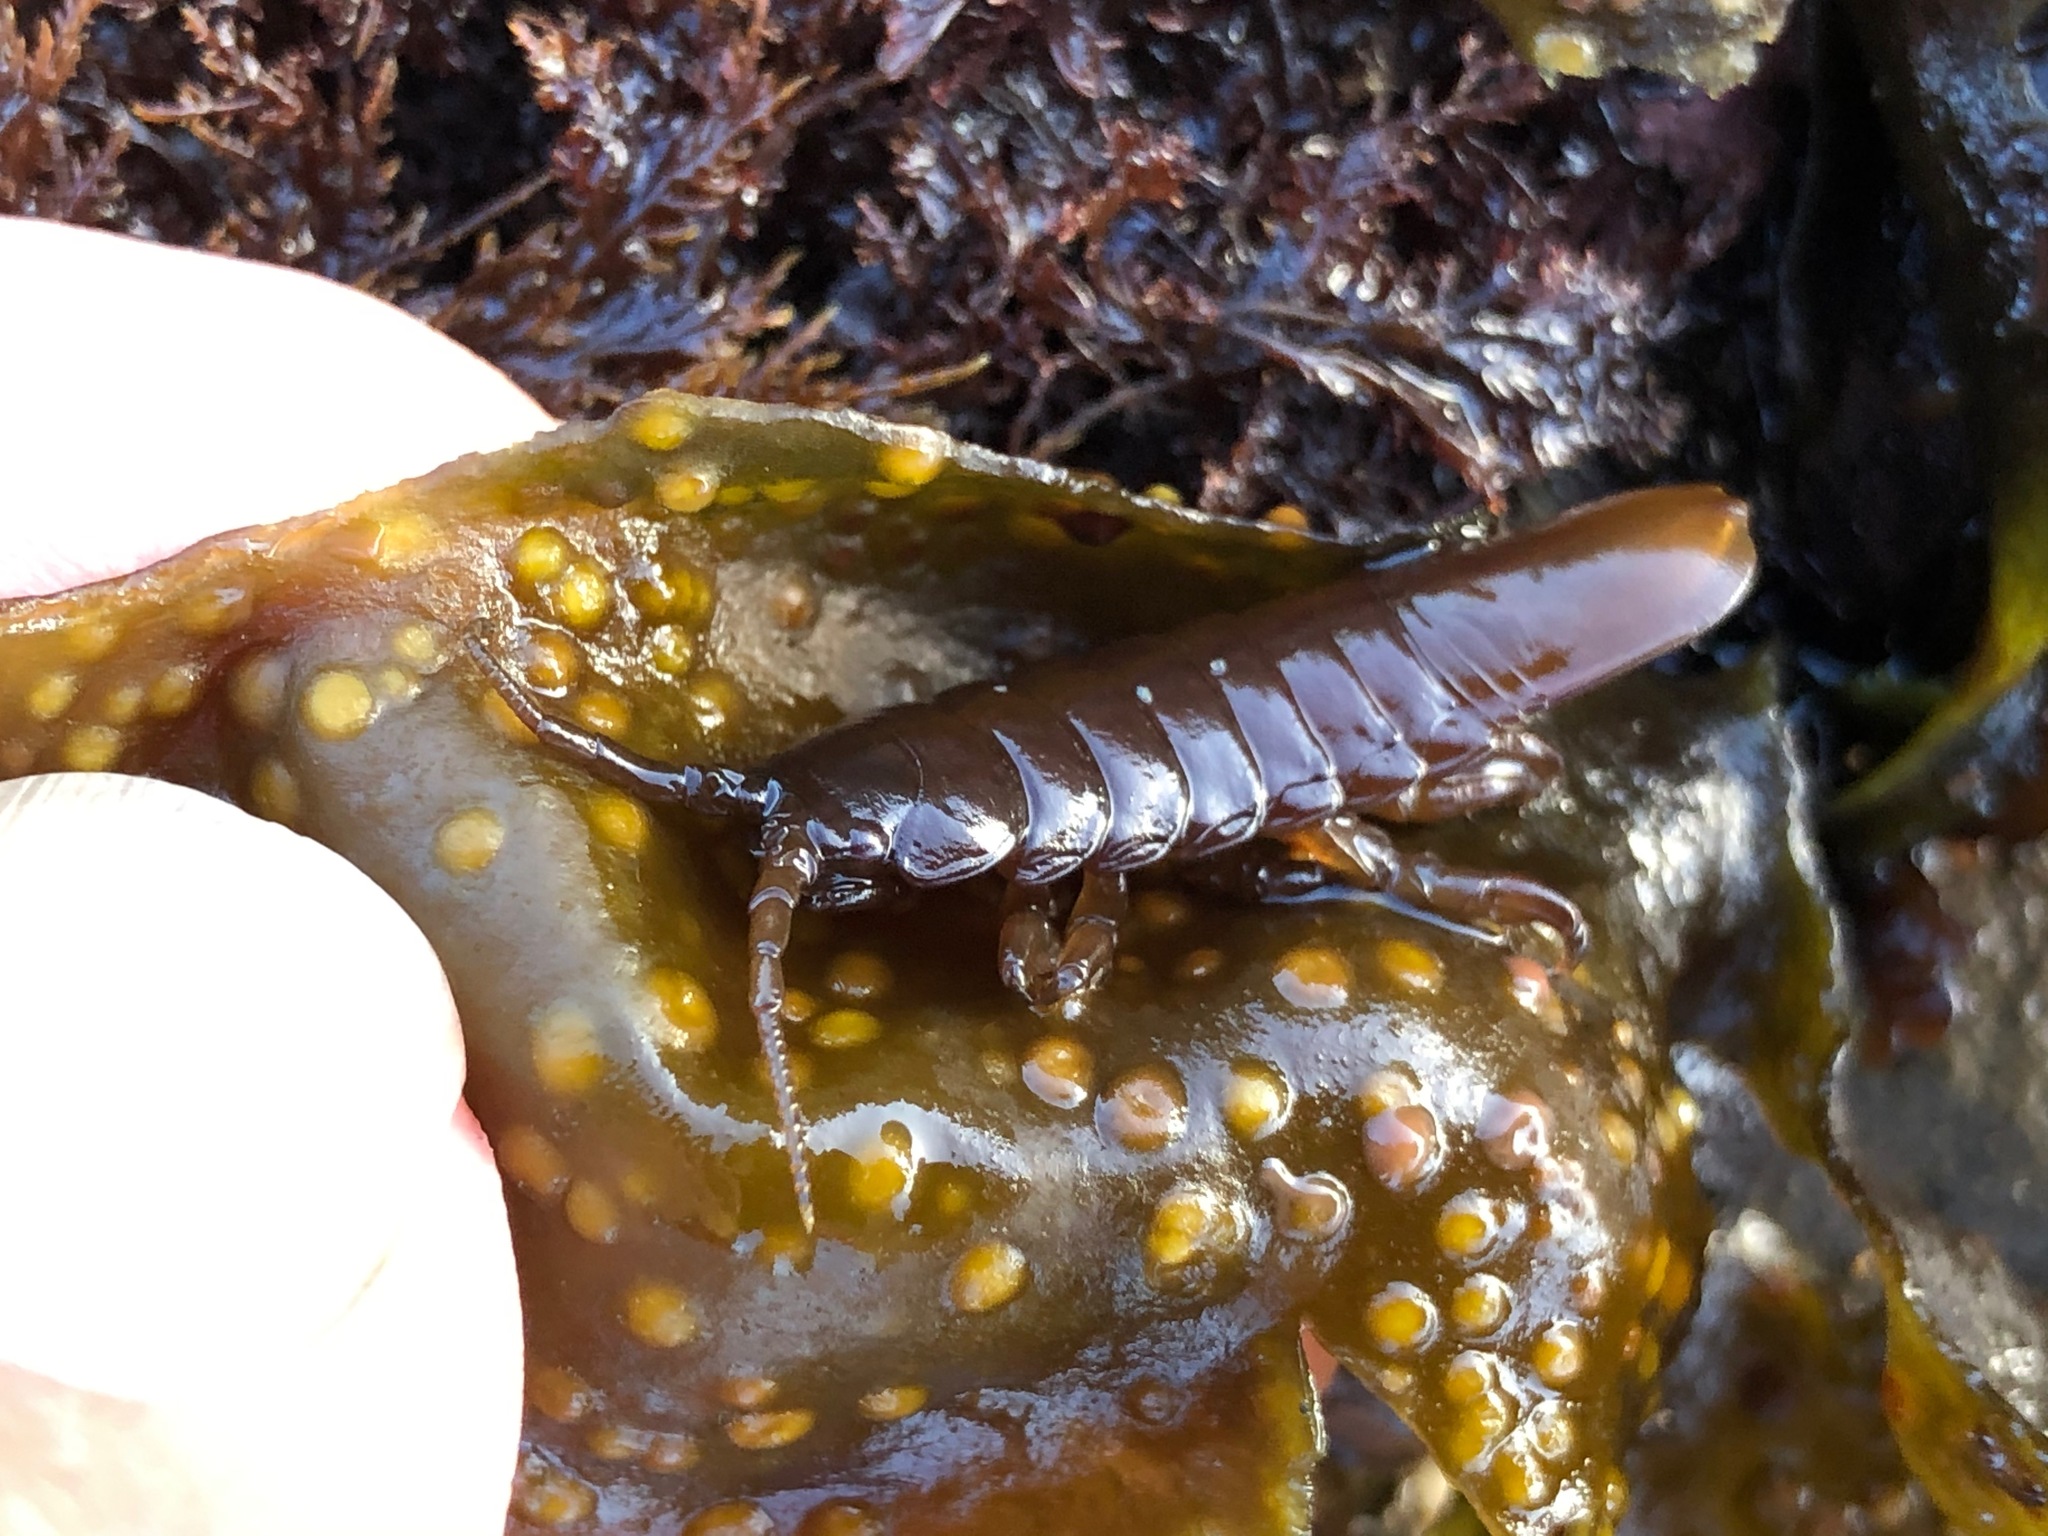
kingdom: Animalia
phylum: Arthropoda
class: Malacostraca
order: Isopoda
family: Idoteidae
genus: Pentidotea
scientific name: Pentidotea wosnesenskii
